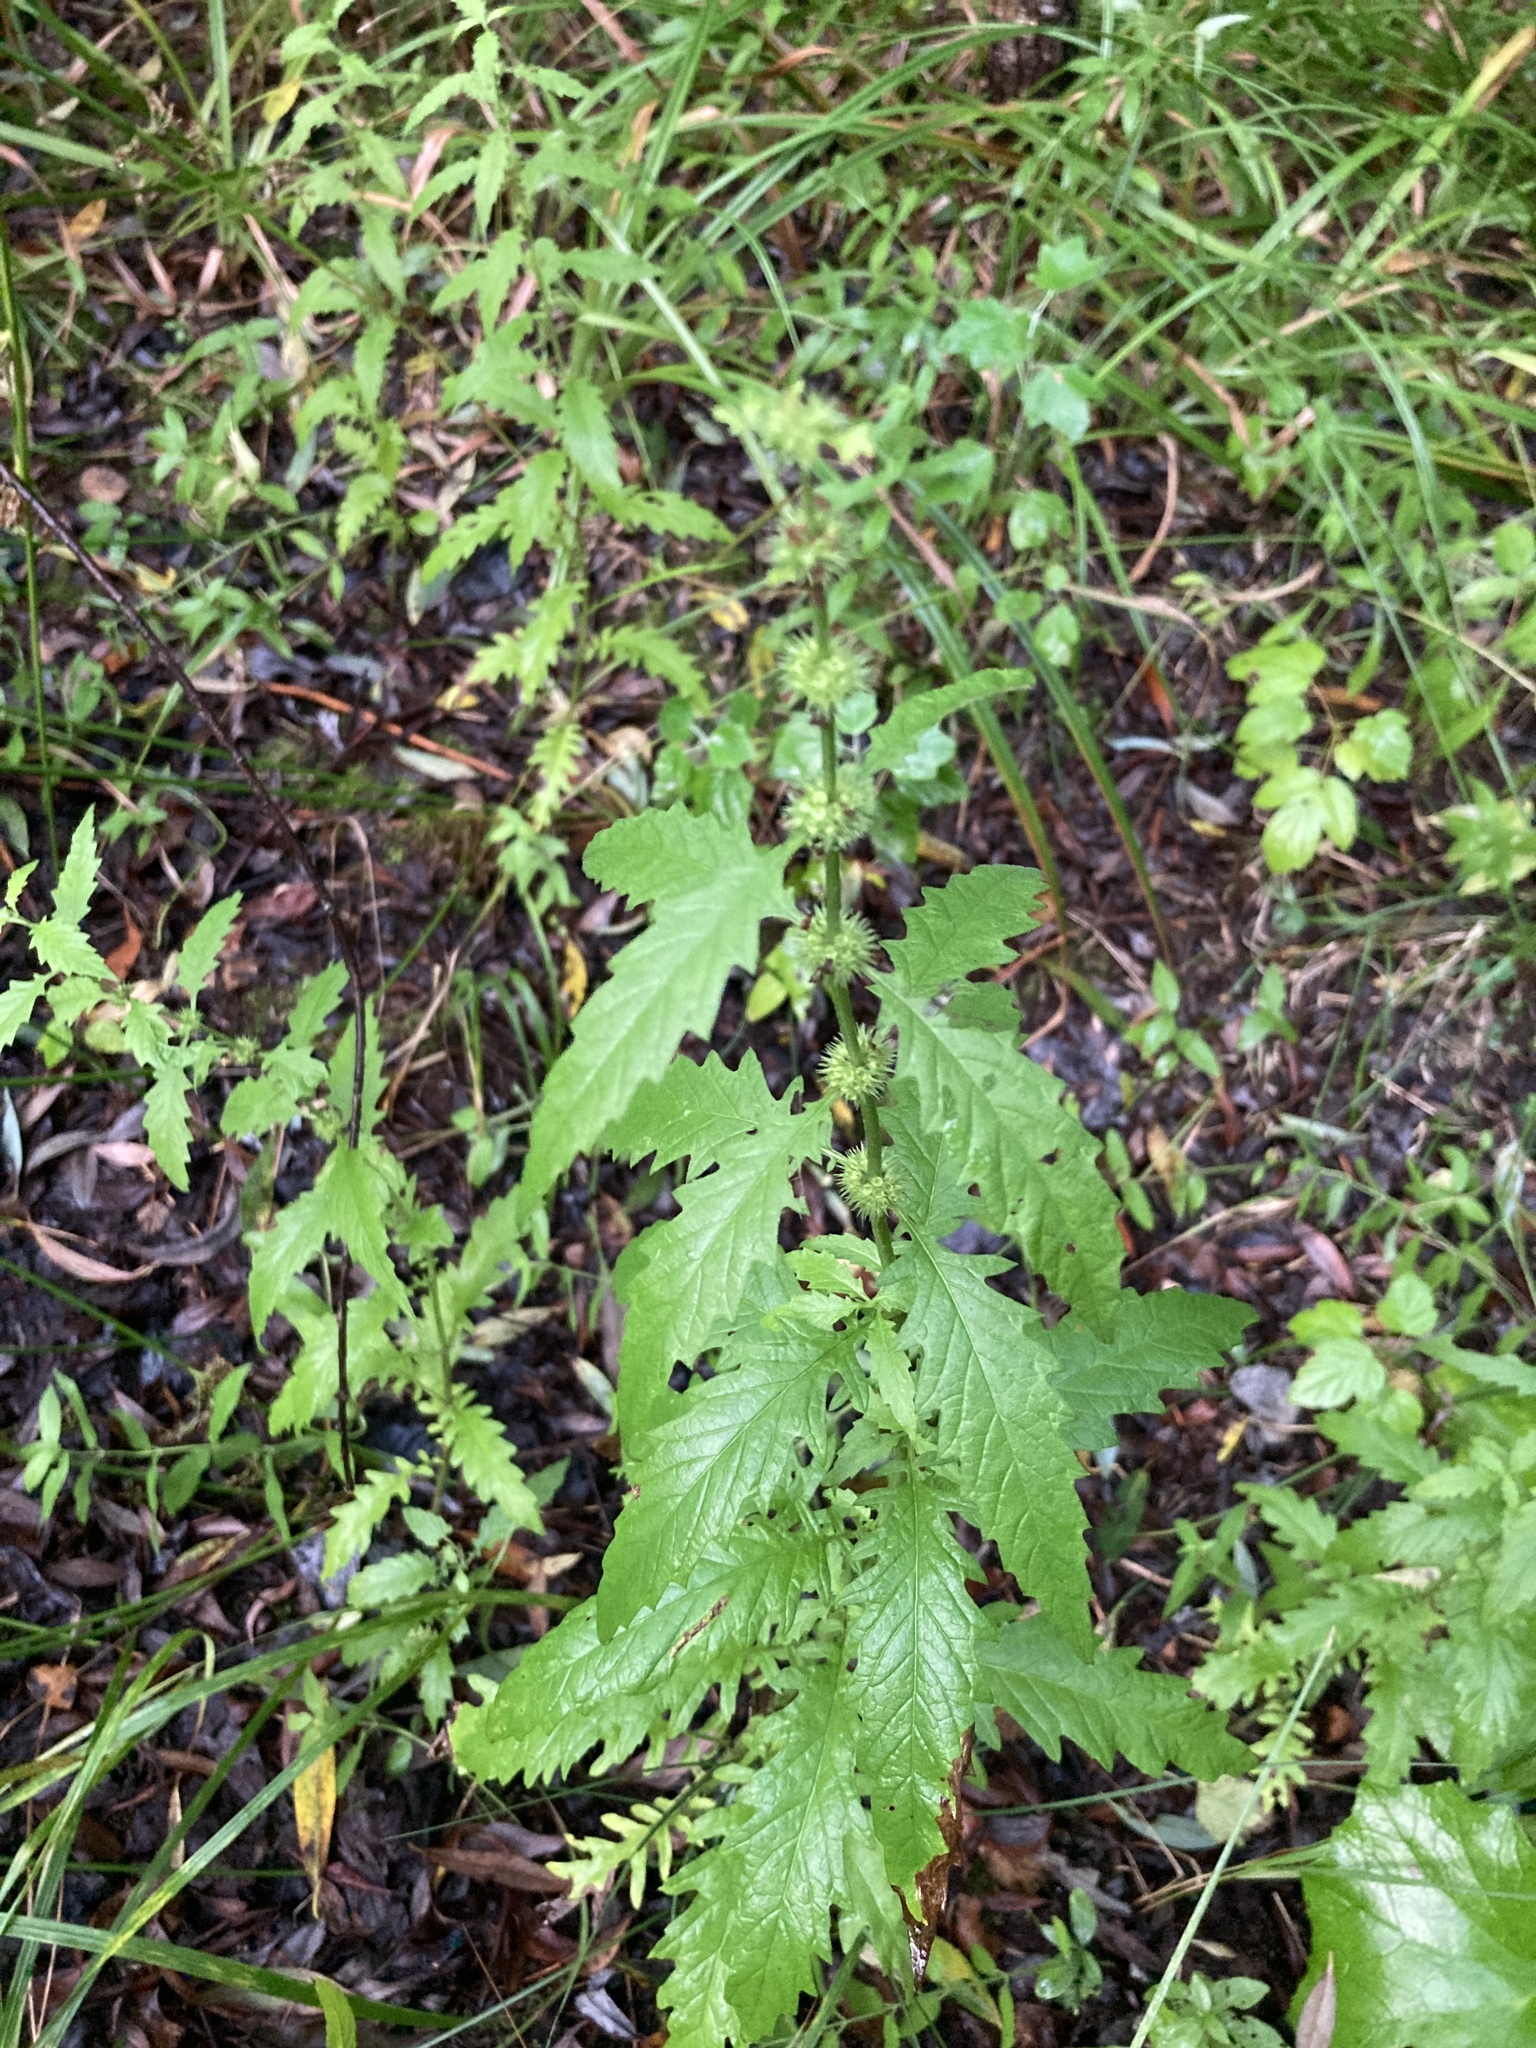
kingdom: Plantae
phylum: Tracheophyta
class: Magnoliopsida
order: Lamiales
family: Lamiaceae
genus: Lycopus
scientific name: Lycopus europaeus
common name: European bugleweed
